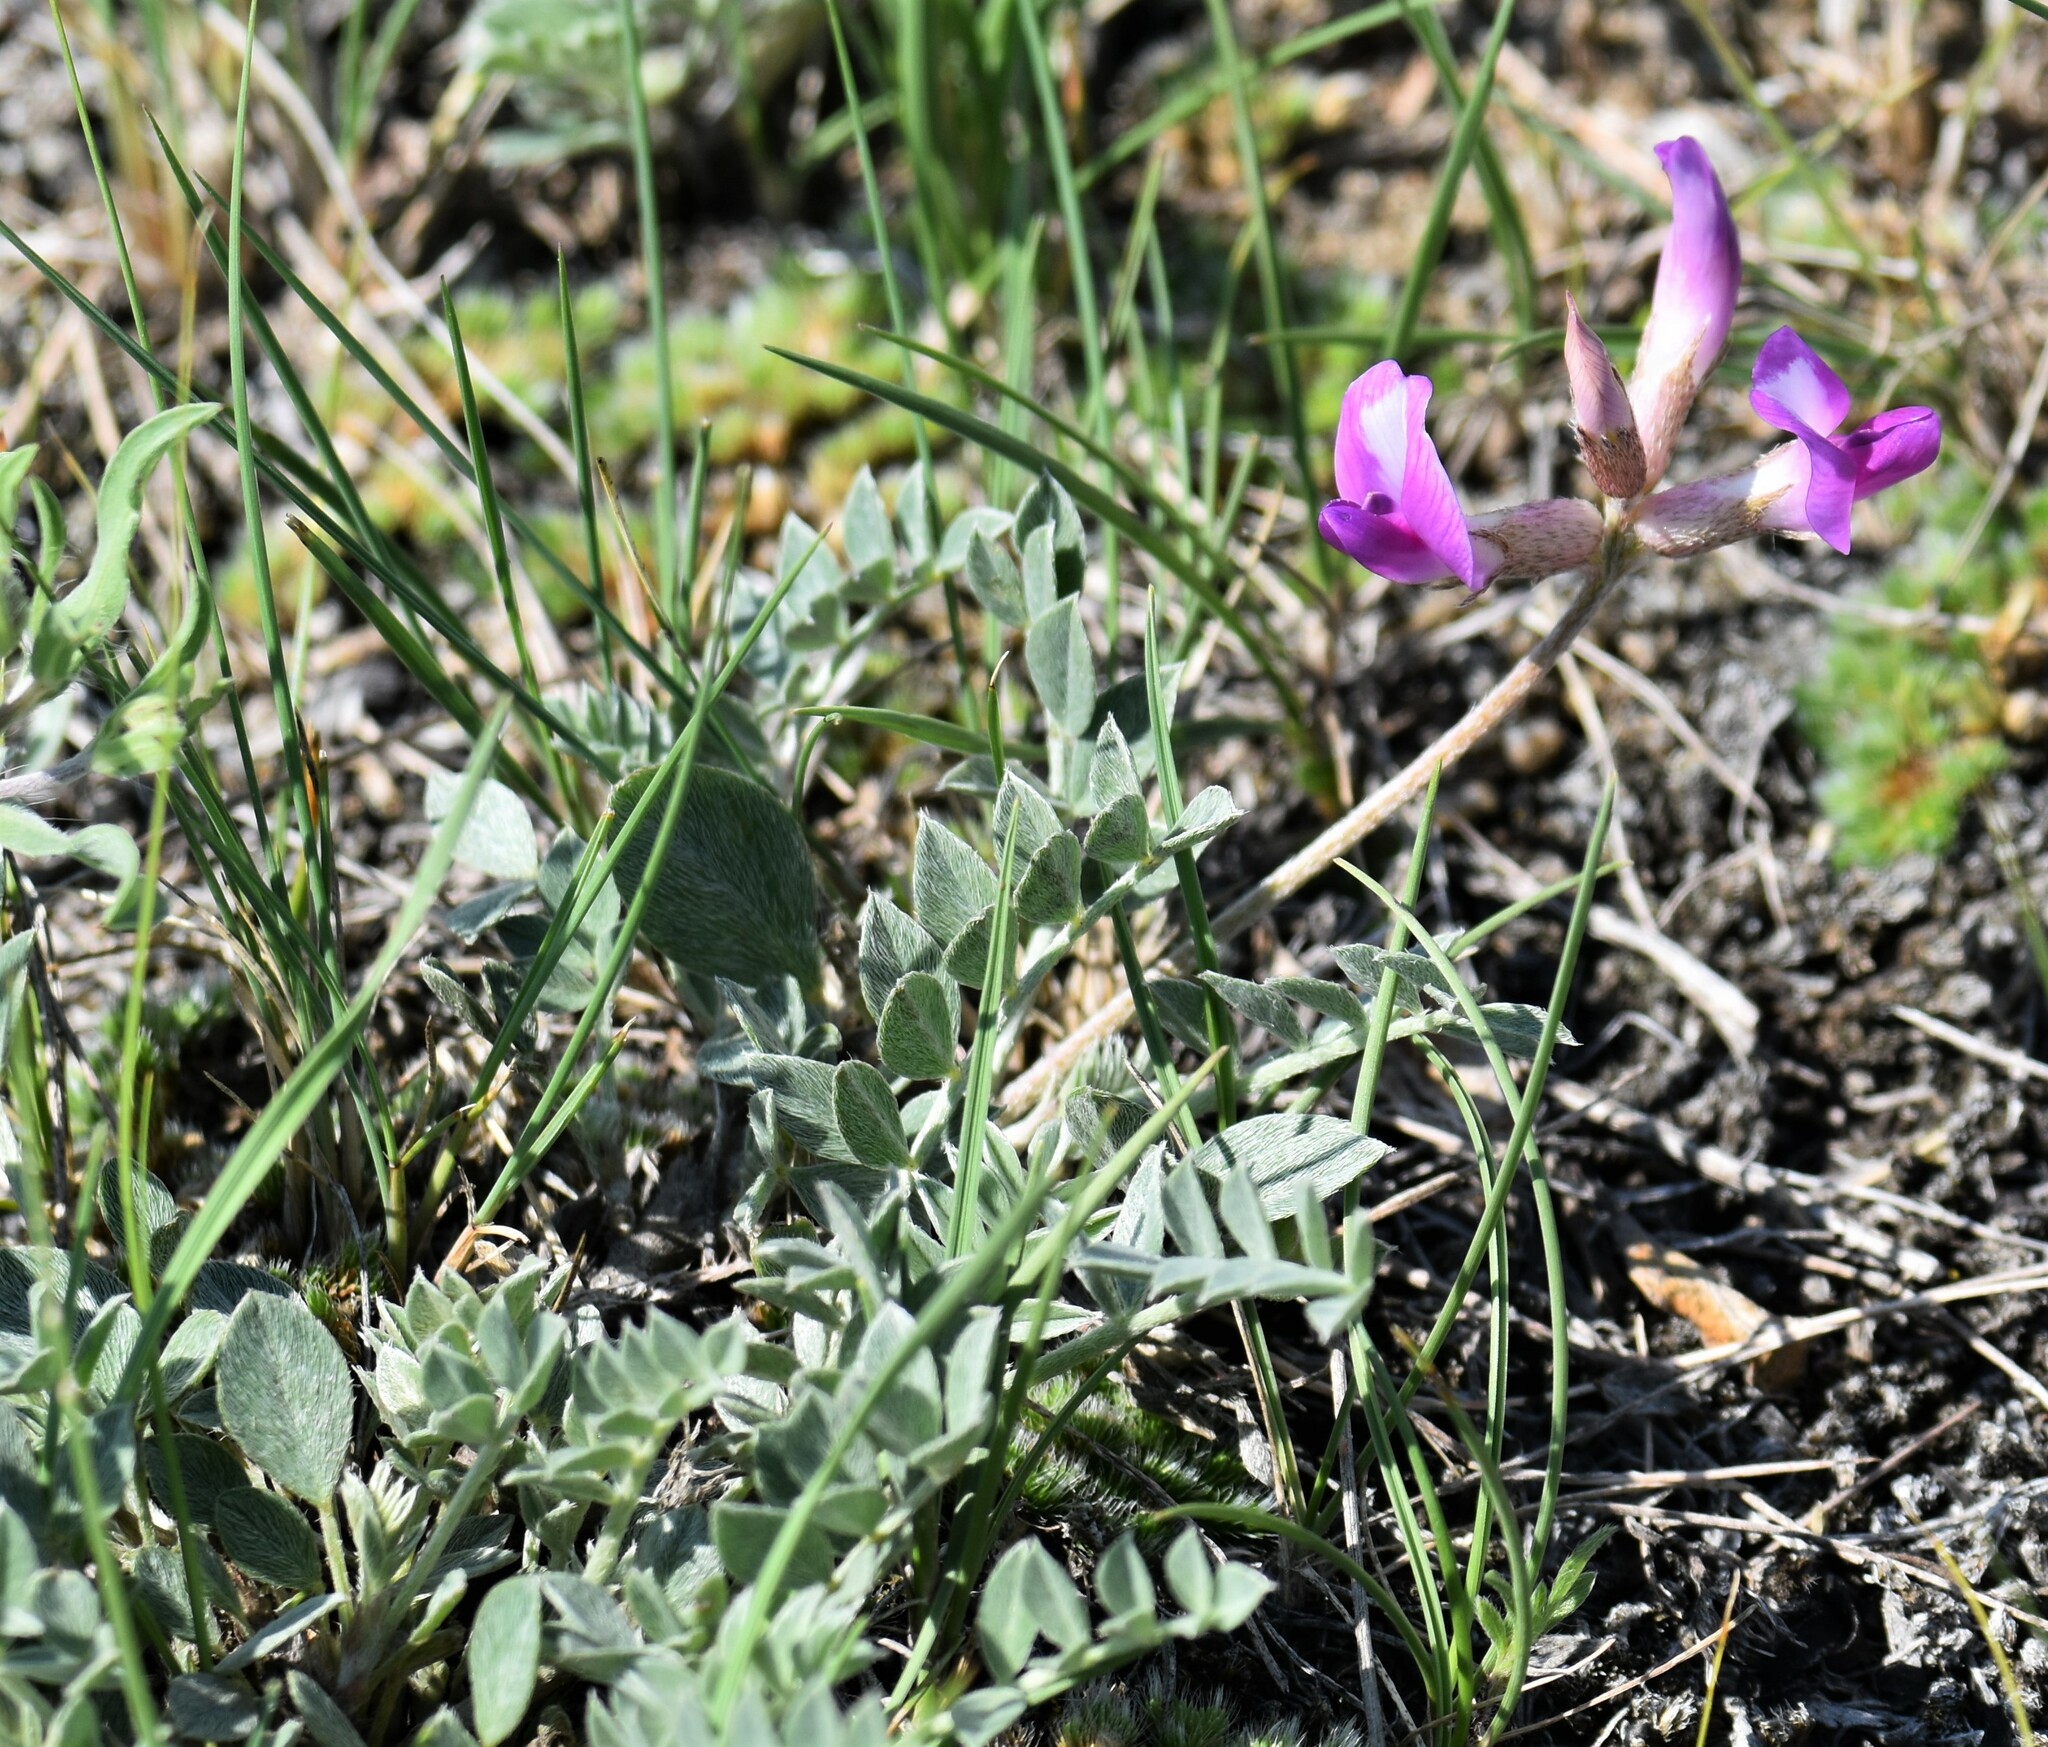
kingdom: Plantae
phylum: Tracheophyta
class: Magnoliopsida
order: Fabales
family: Fabaceae
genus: Astragalus
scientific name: Astragalus missouriensis
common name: Missouri milk-vetch
